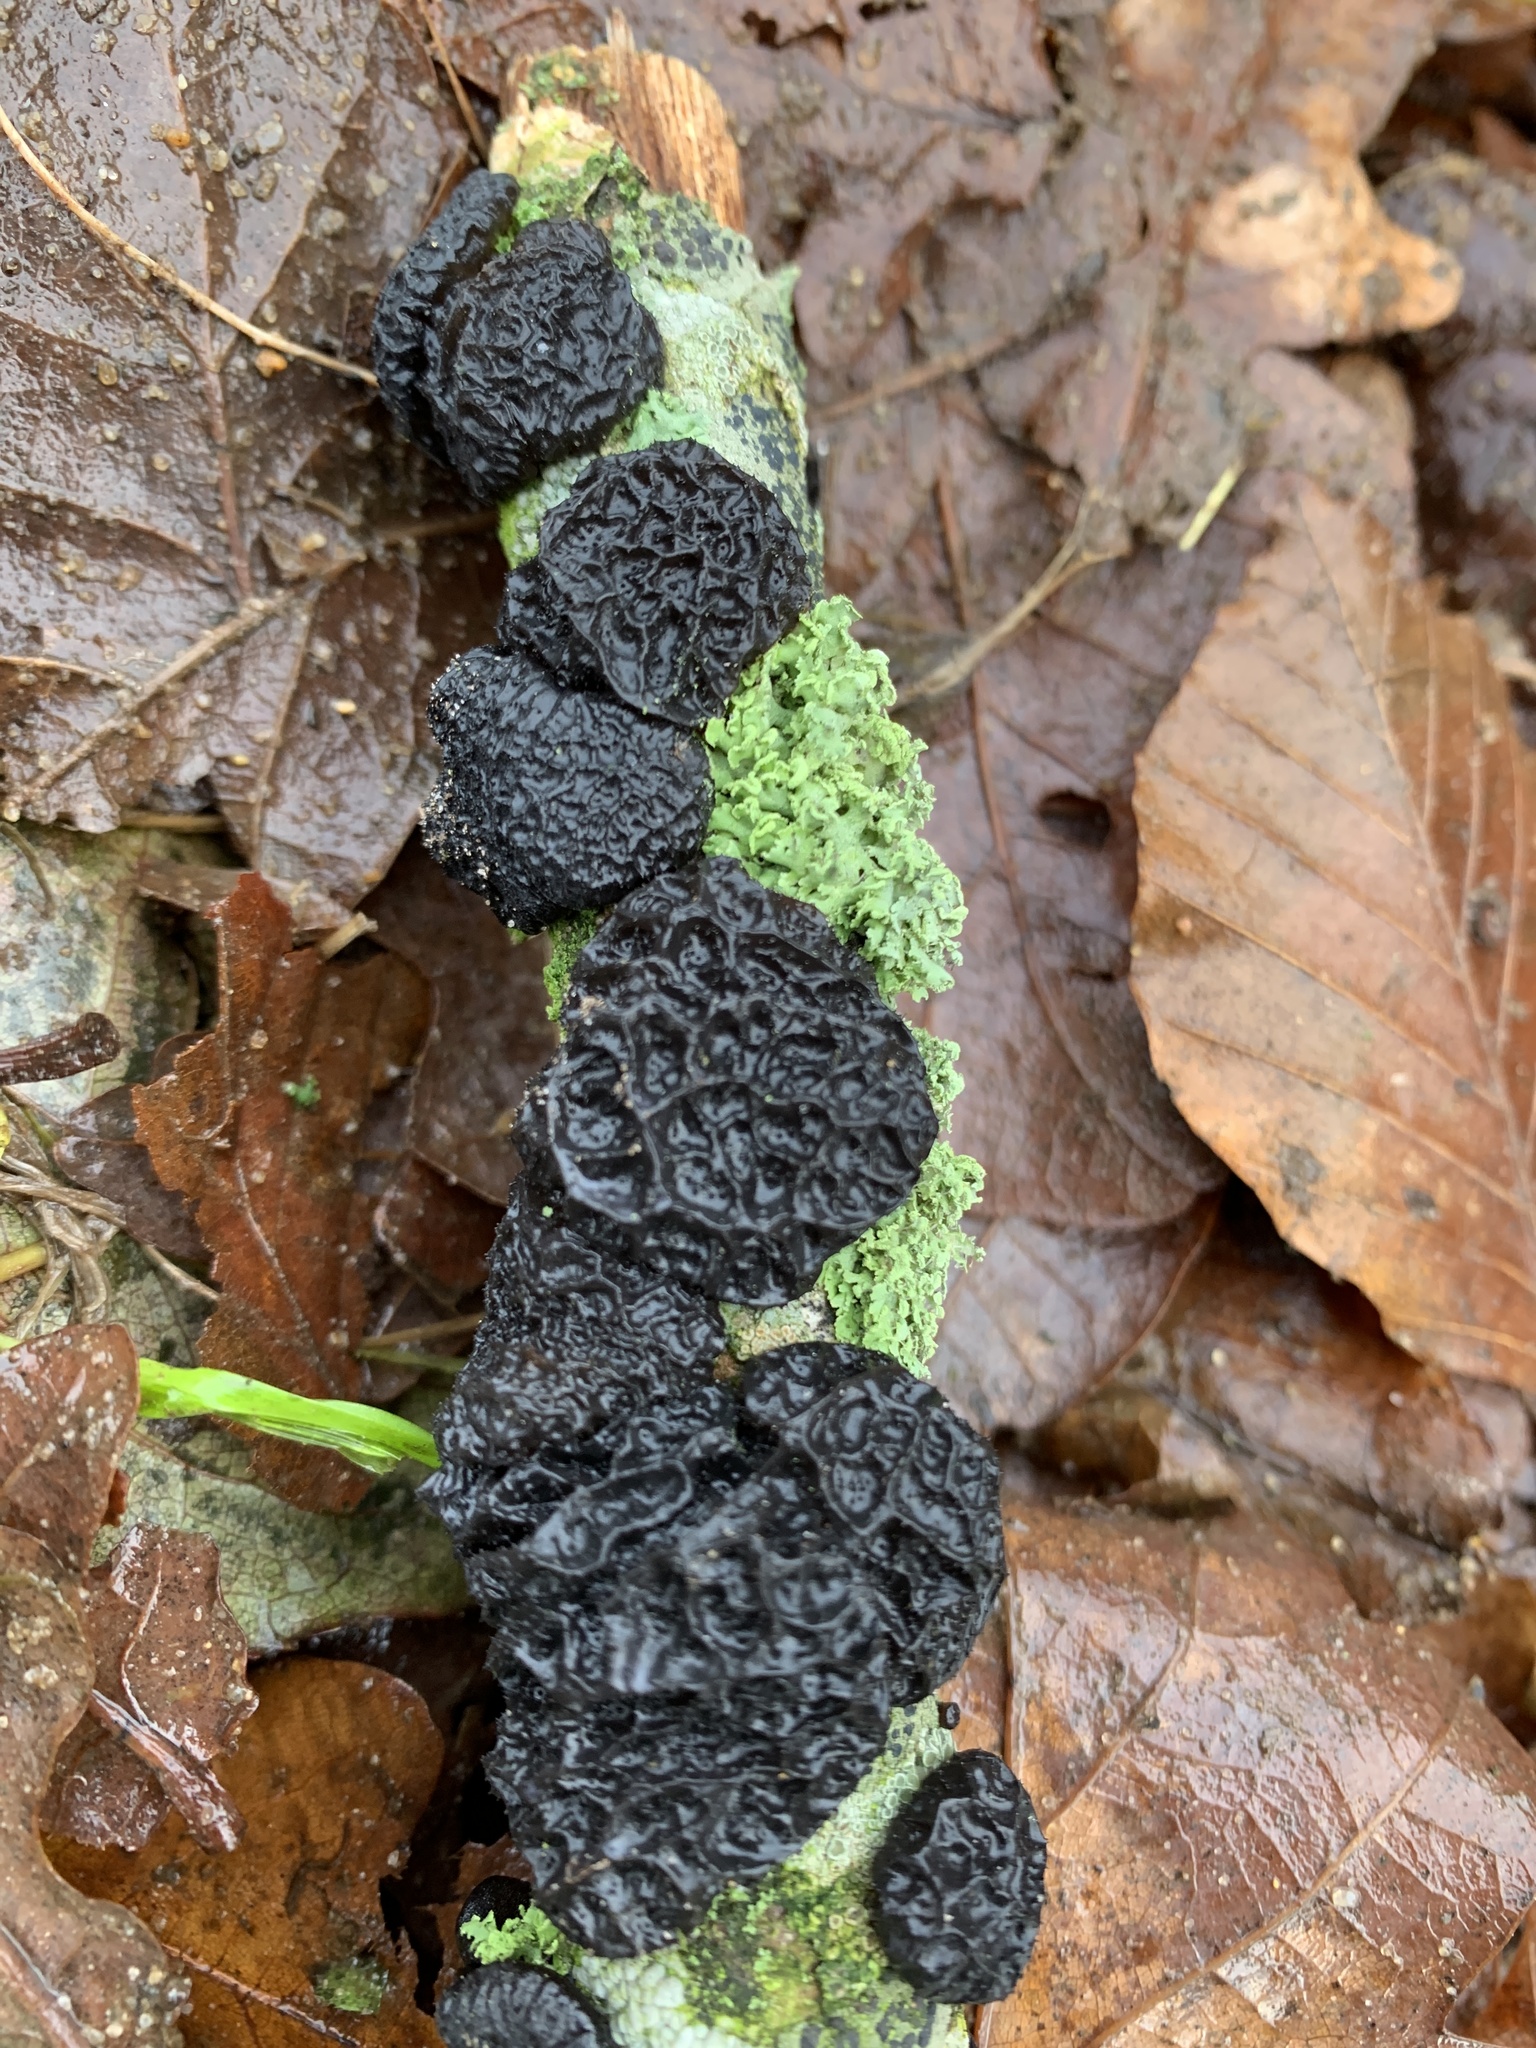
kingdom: Fungi
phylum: Basidiomycota
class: Agaricomycetes
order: Auriculariales
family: Auriculariaceae
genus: Exidia
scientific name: Exidia glandulosa
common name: Witches' butter
